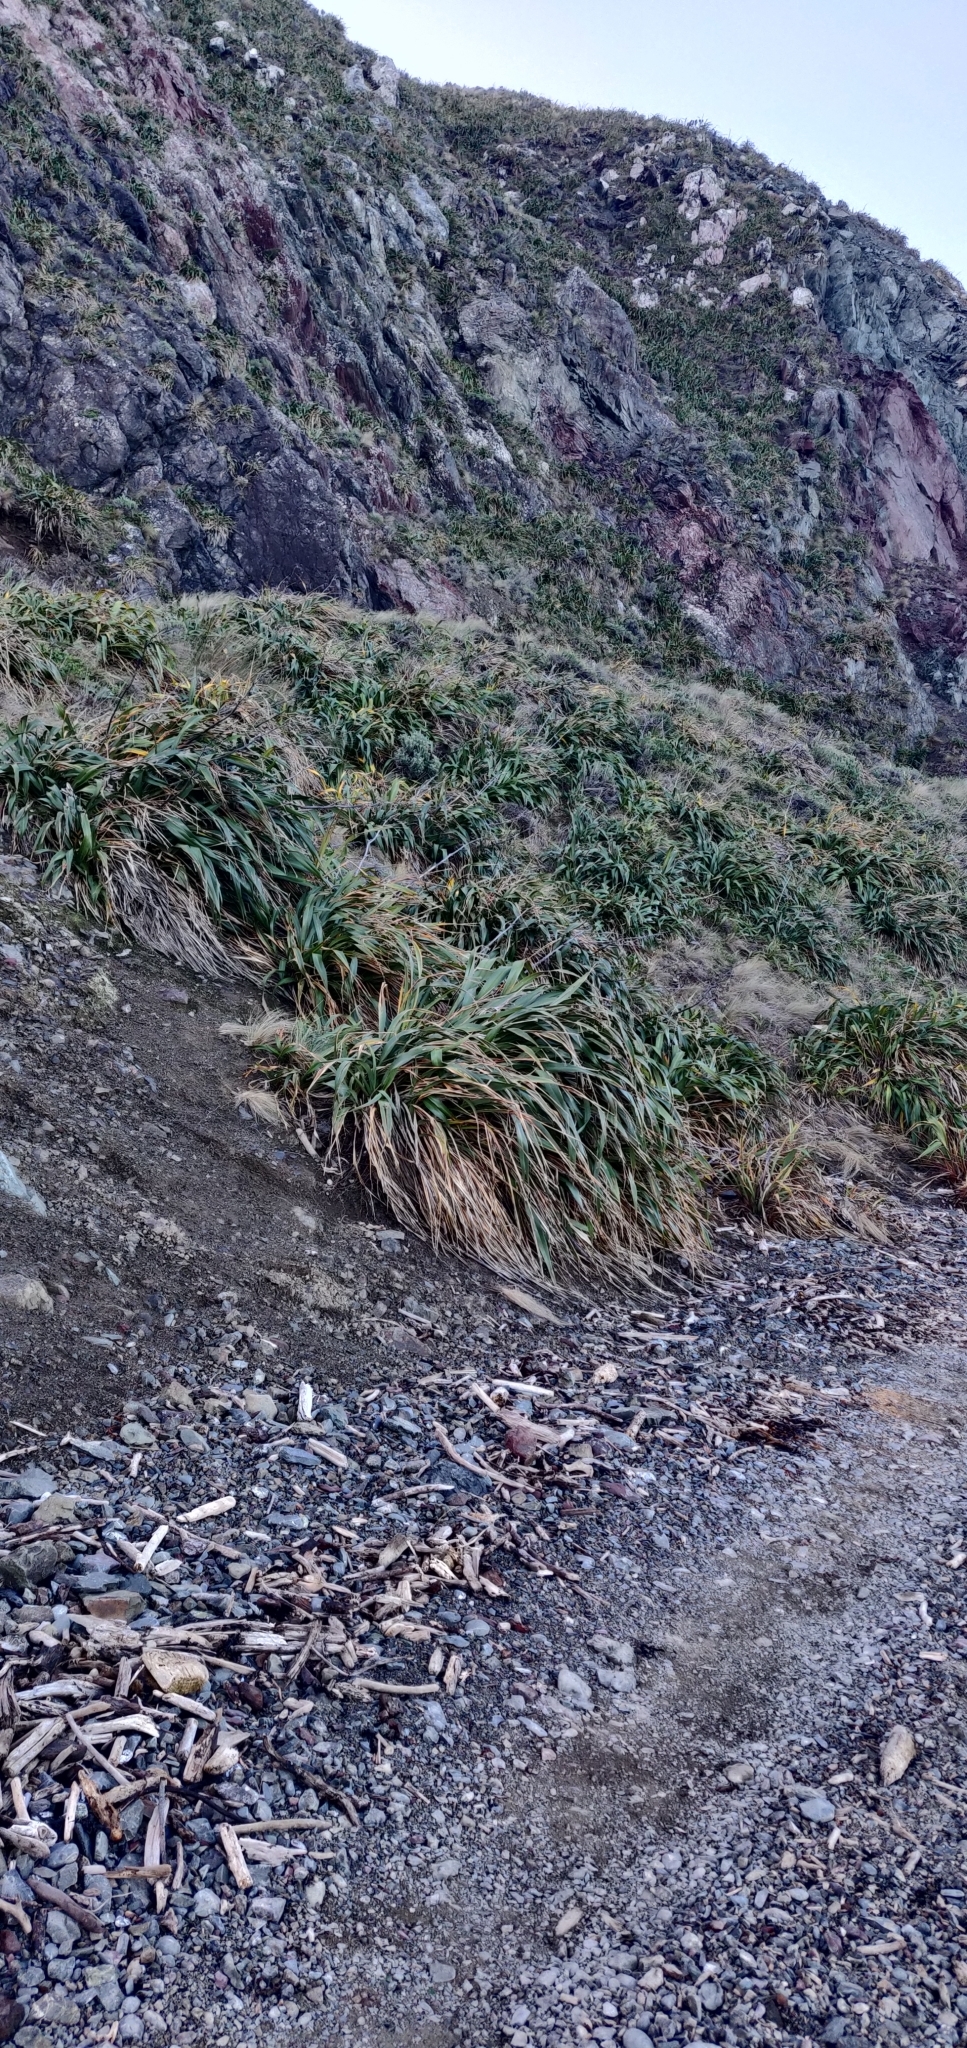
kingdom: Plantae
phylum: Tracheophyta
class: Liliopsida
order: Asparagales
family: Asphodelaceae
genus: Phormium
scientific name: Phormium colensoi
